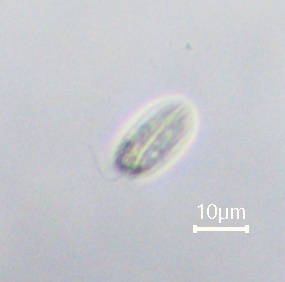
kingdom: Protozoa
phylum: Euglenozoa
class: Entosiphonea
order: Entosiphonida
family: Entosiphonidae
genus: Entosiphon
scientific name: Entosiphon sulcatus
